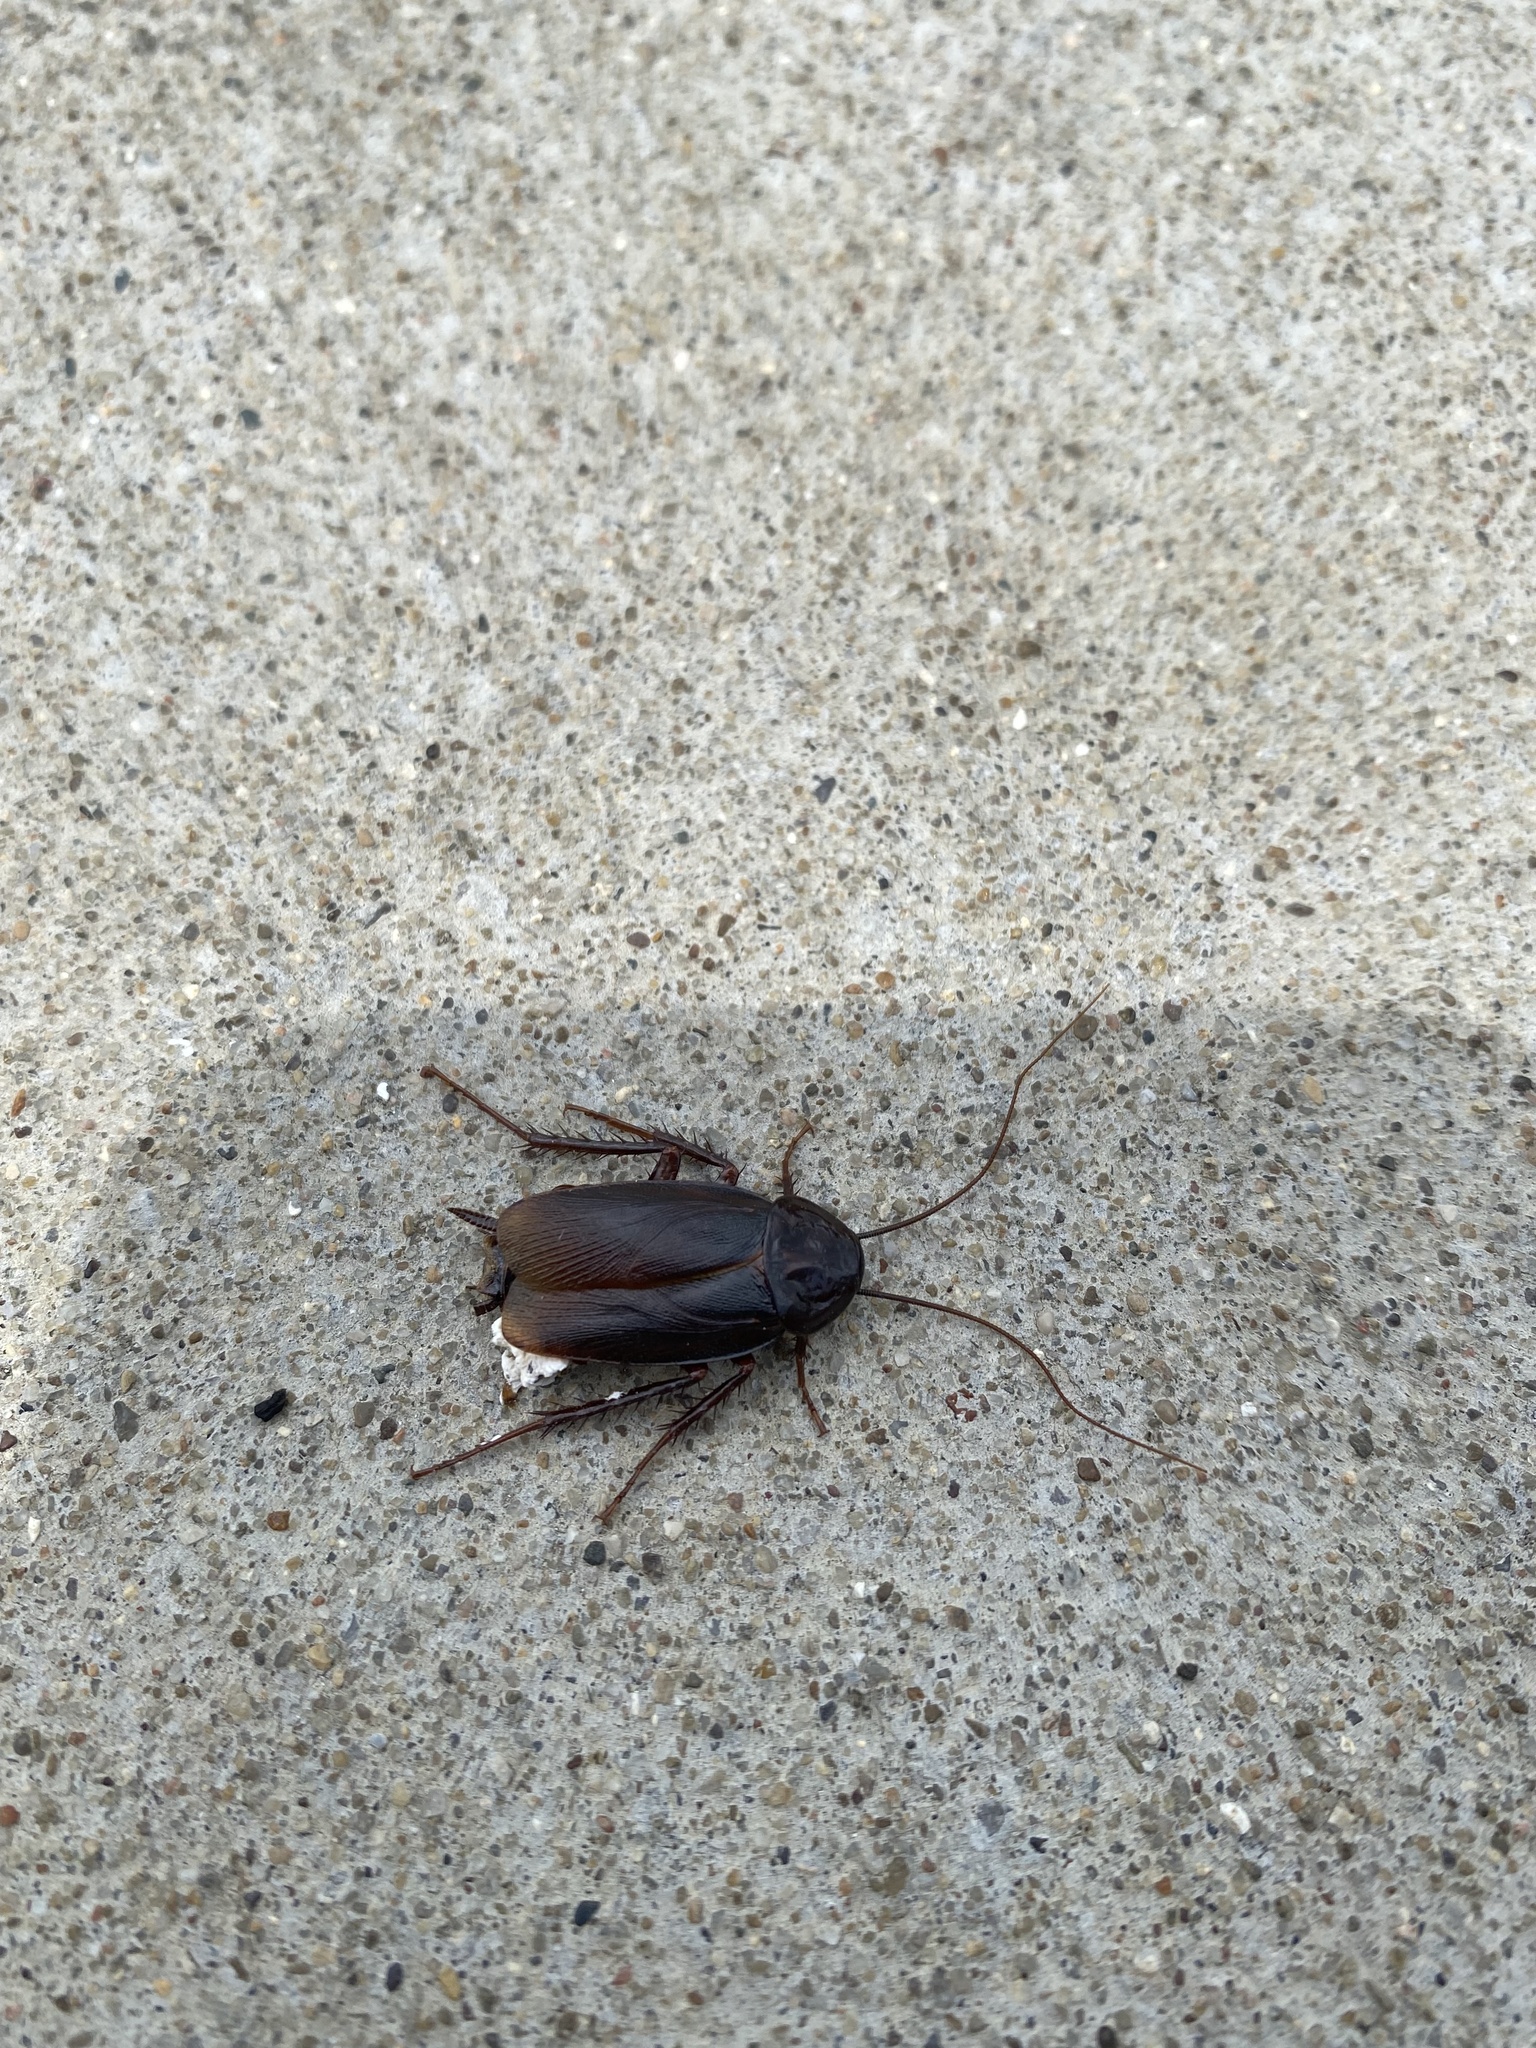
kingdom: Animalia
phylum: Arthropoda
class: Insecta
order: Blattodea
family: Blattidae
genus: Blatta
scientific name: Blatta orientalis
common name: Oriental cockroach
